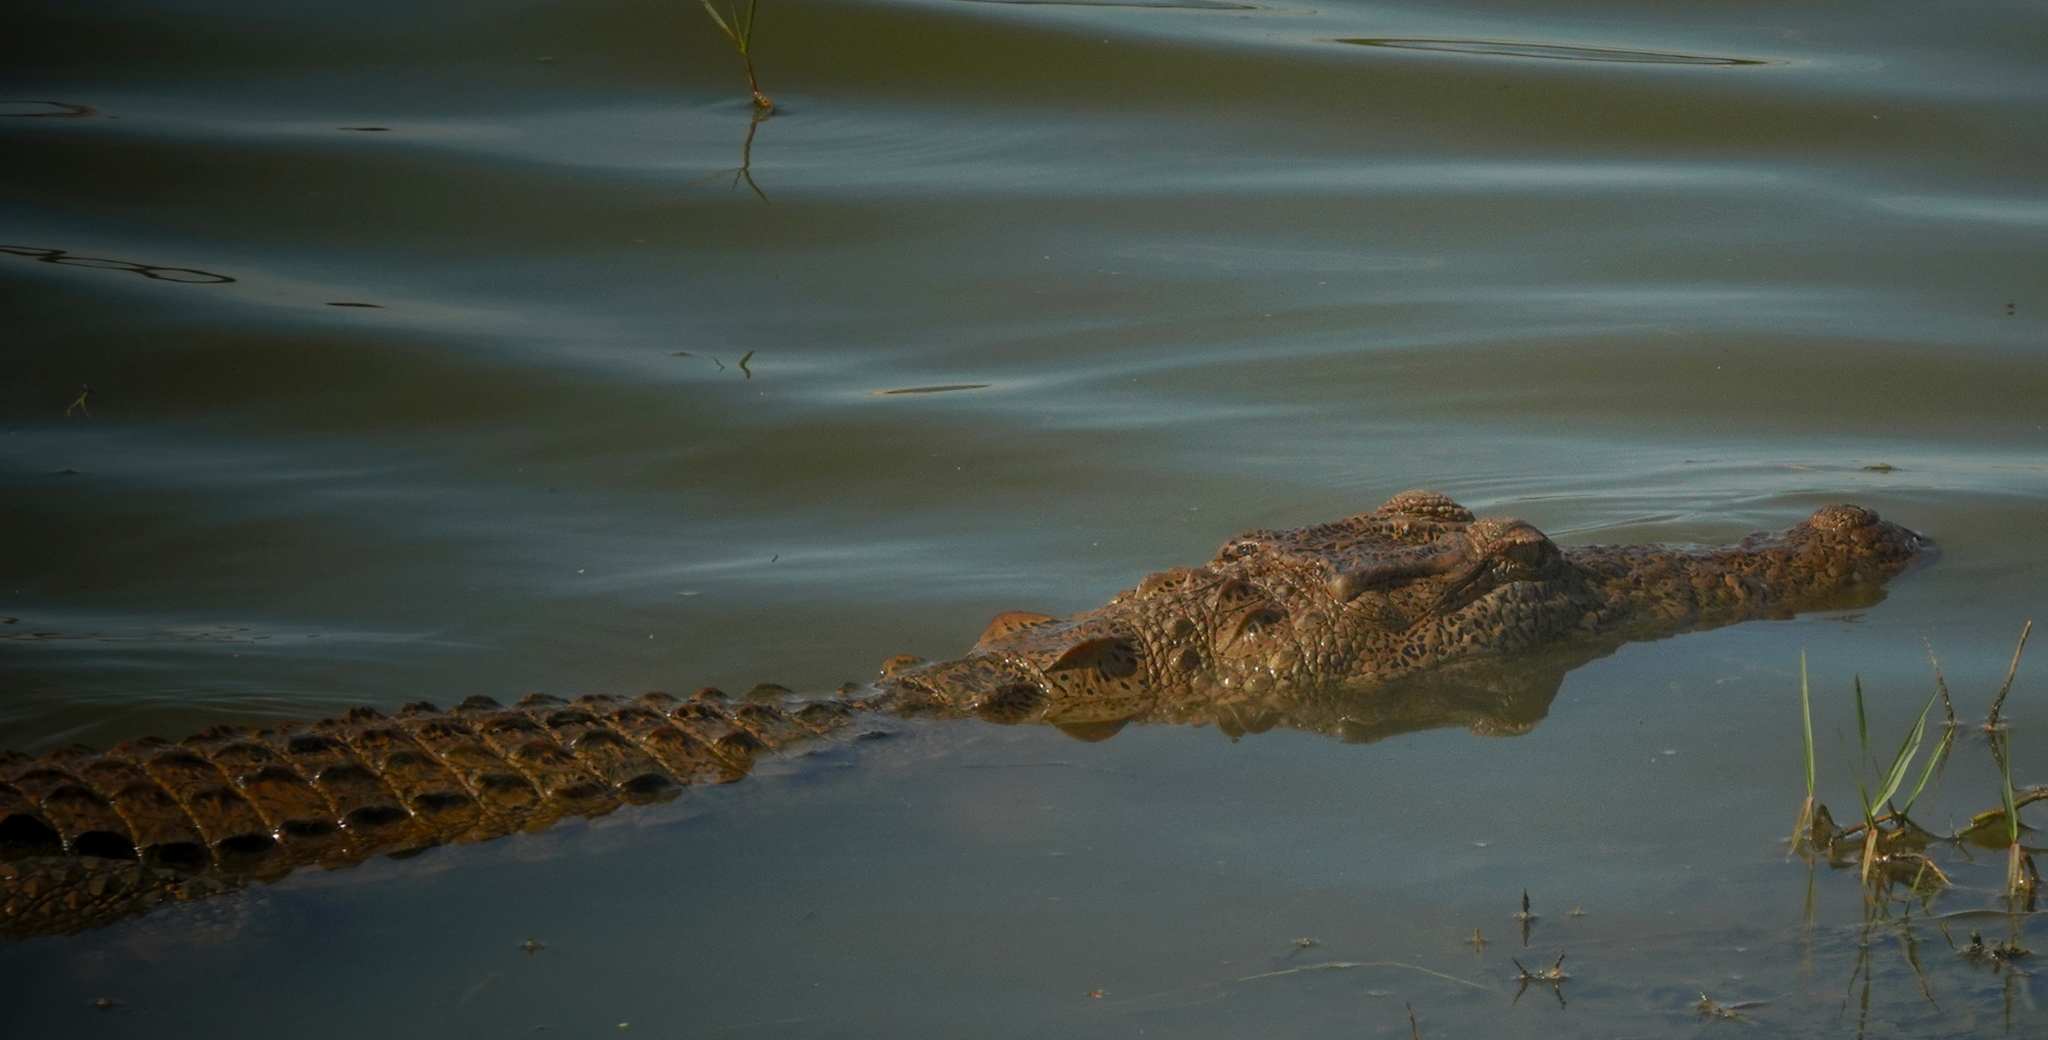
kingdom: Animalia
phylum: Chordata
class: Crocodylia
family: Crocodylidae
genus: Crocodylus
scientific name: Crocodylus palustris
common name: Mugger crocodile
